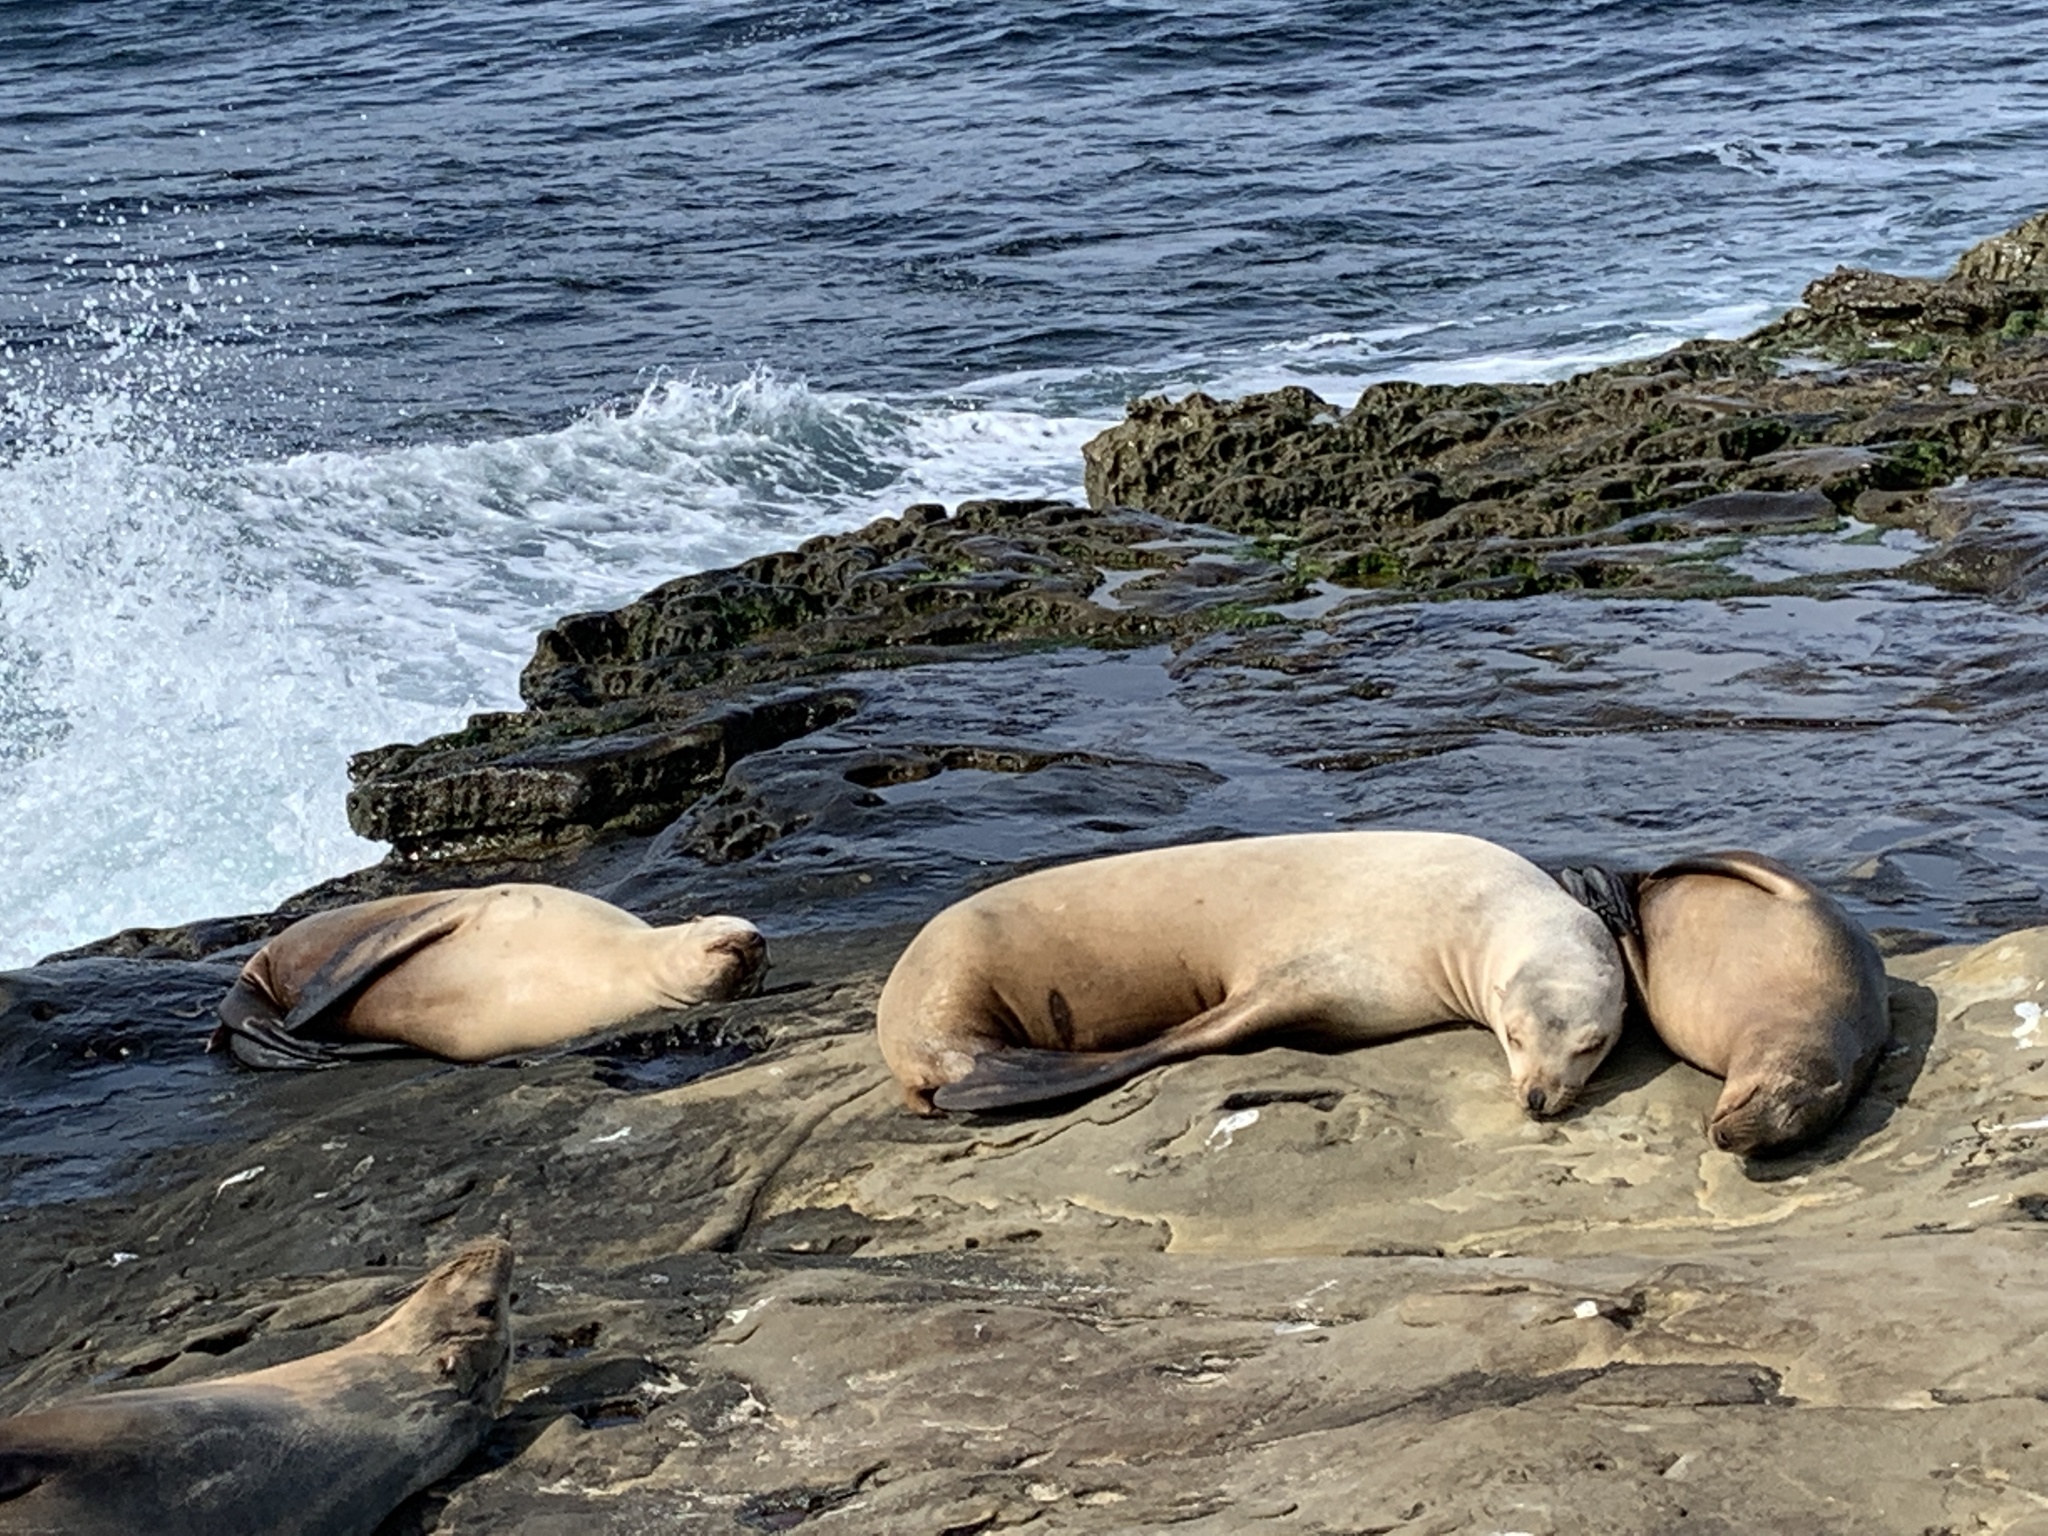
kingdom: Animalia
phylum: Chordata
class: Mammalia
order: Carnivora
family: Otariidae
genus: Zalophus
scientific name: Zalophus californianus
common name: California sea lion
